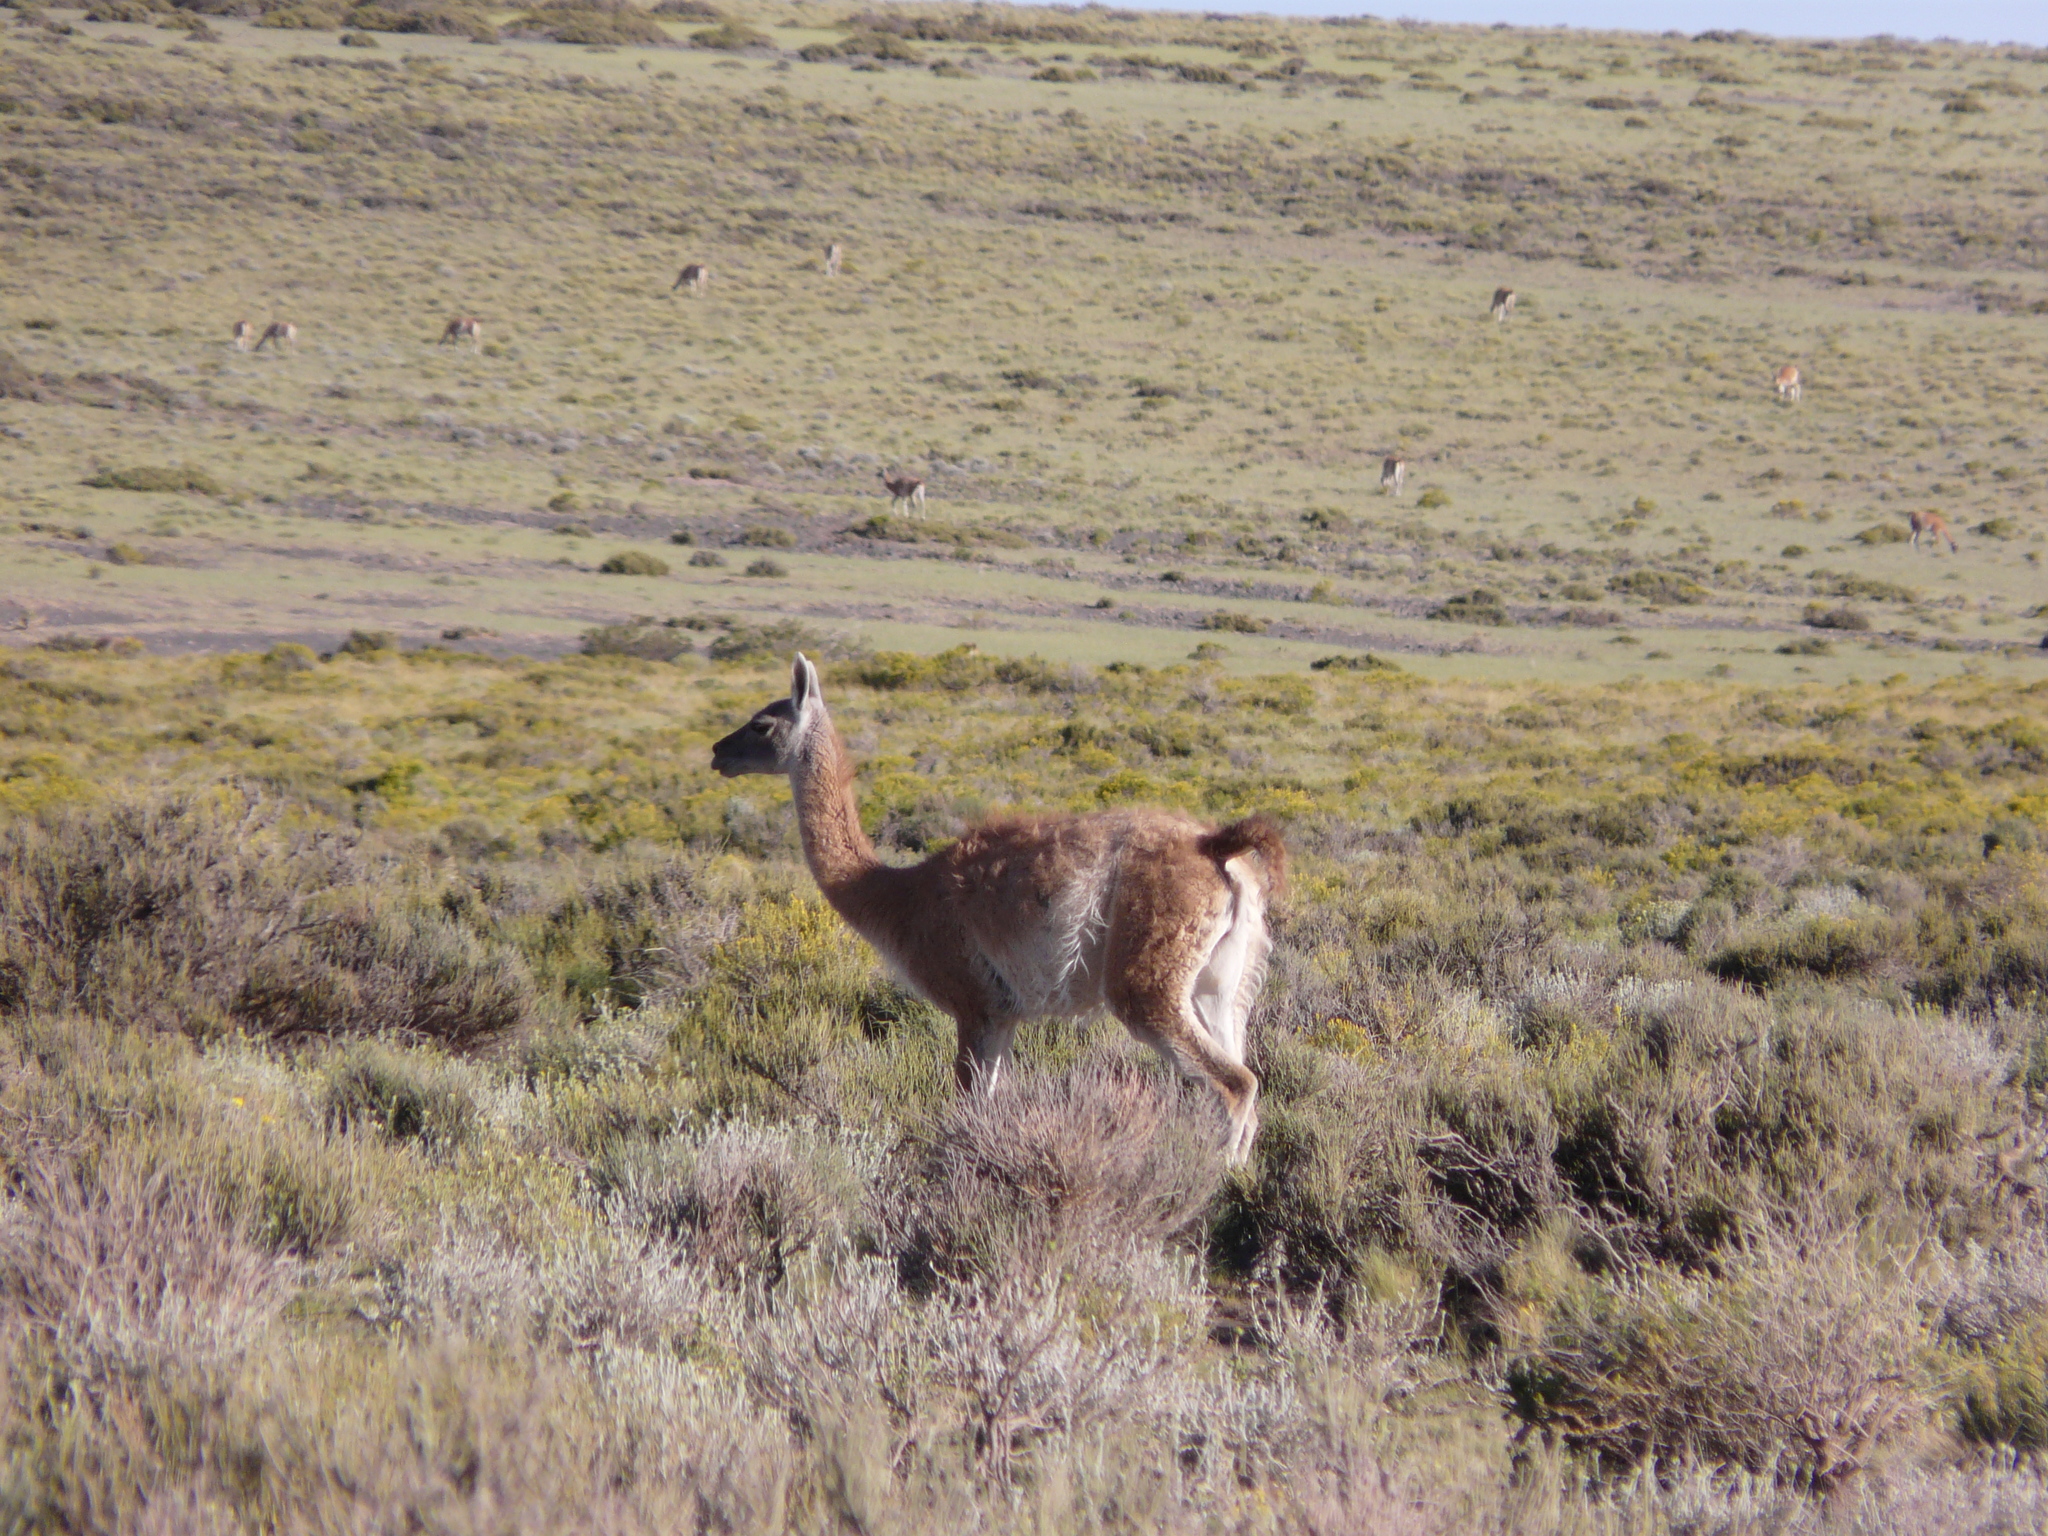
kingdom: Animalia
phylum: Chordata
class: Mammalia
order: Artiodactyla
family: Camelidae
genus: Lama
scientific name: Lama glama
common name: Llama
